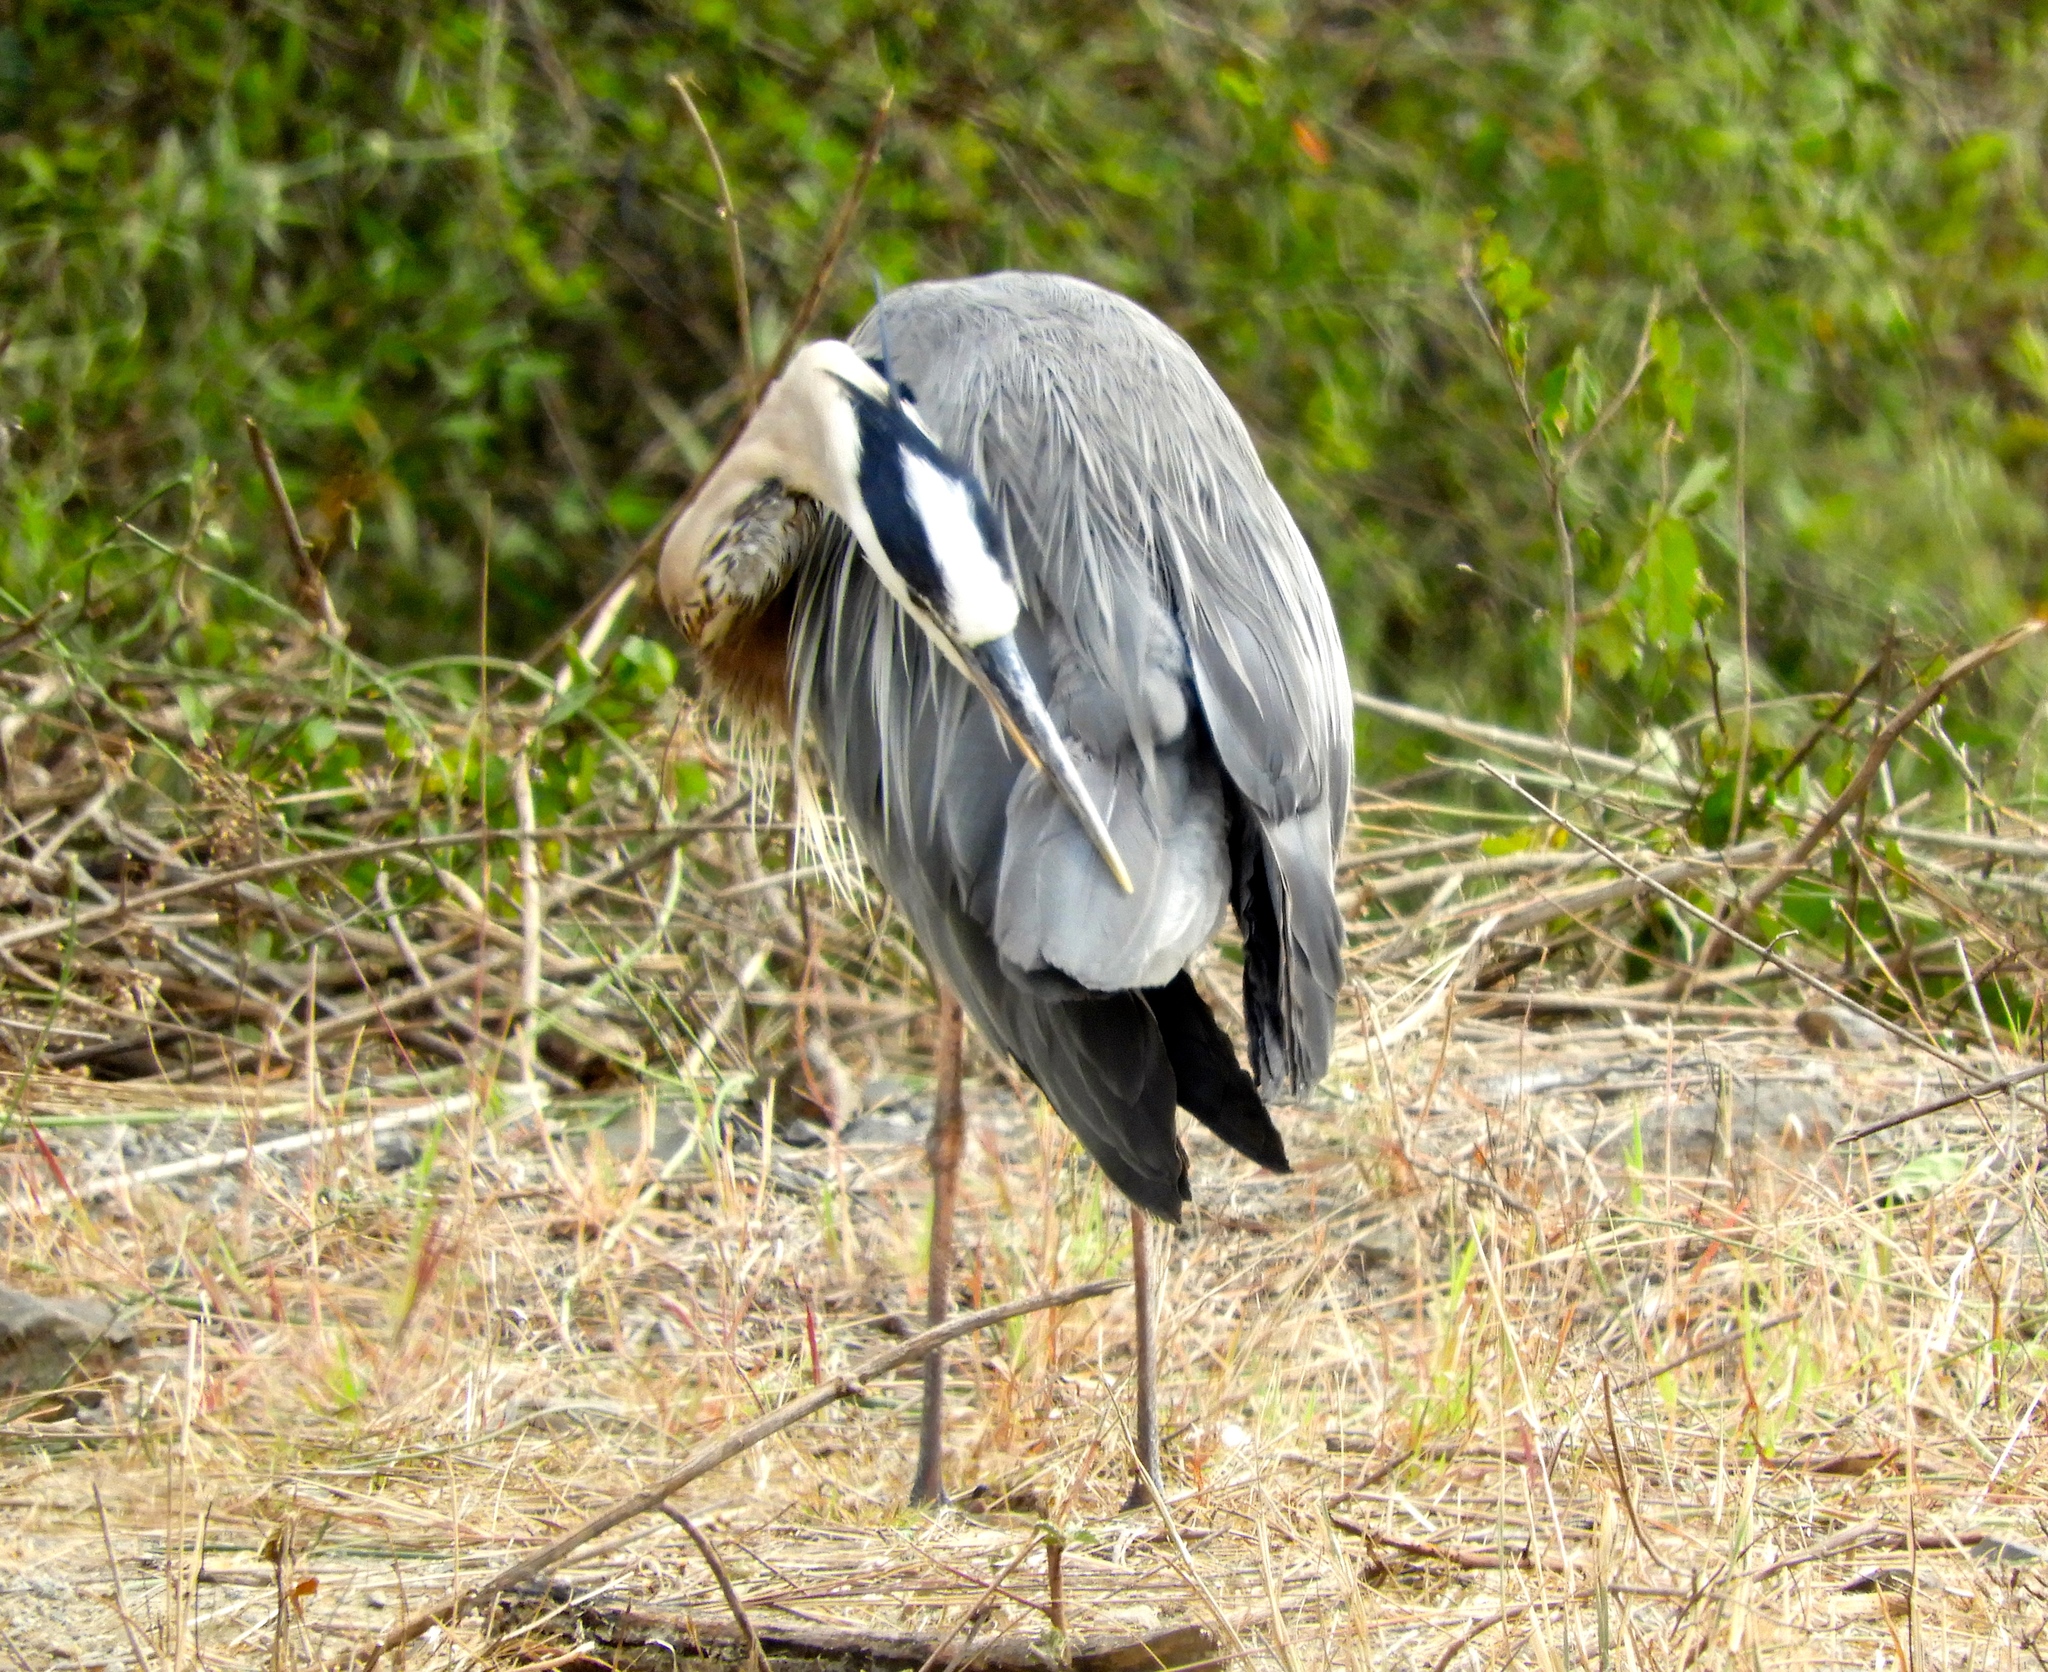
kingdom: Animalia
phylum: Chordata
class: Aves
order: Pelecaniformes
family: Ardeidae
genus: Ardea
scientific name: Ardea herodias
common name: Great blue heron
